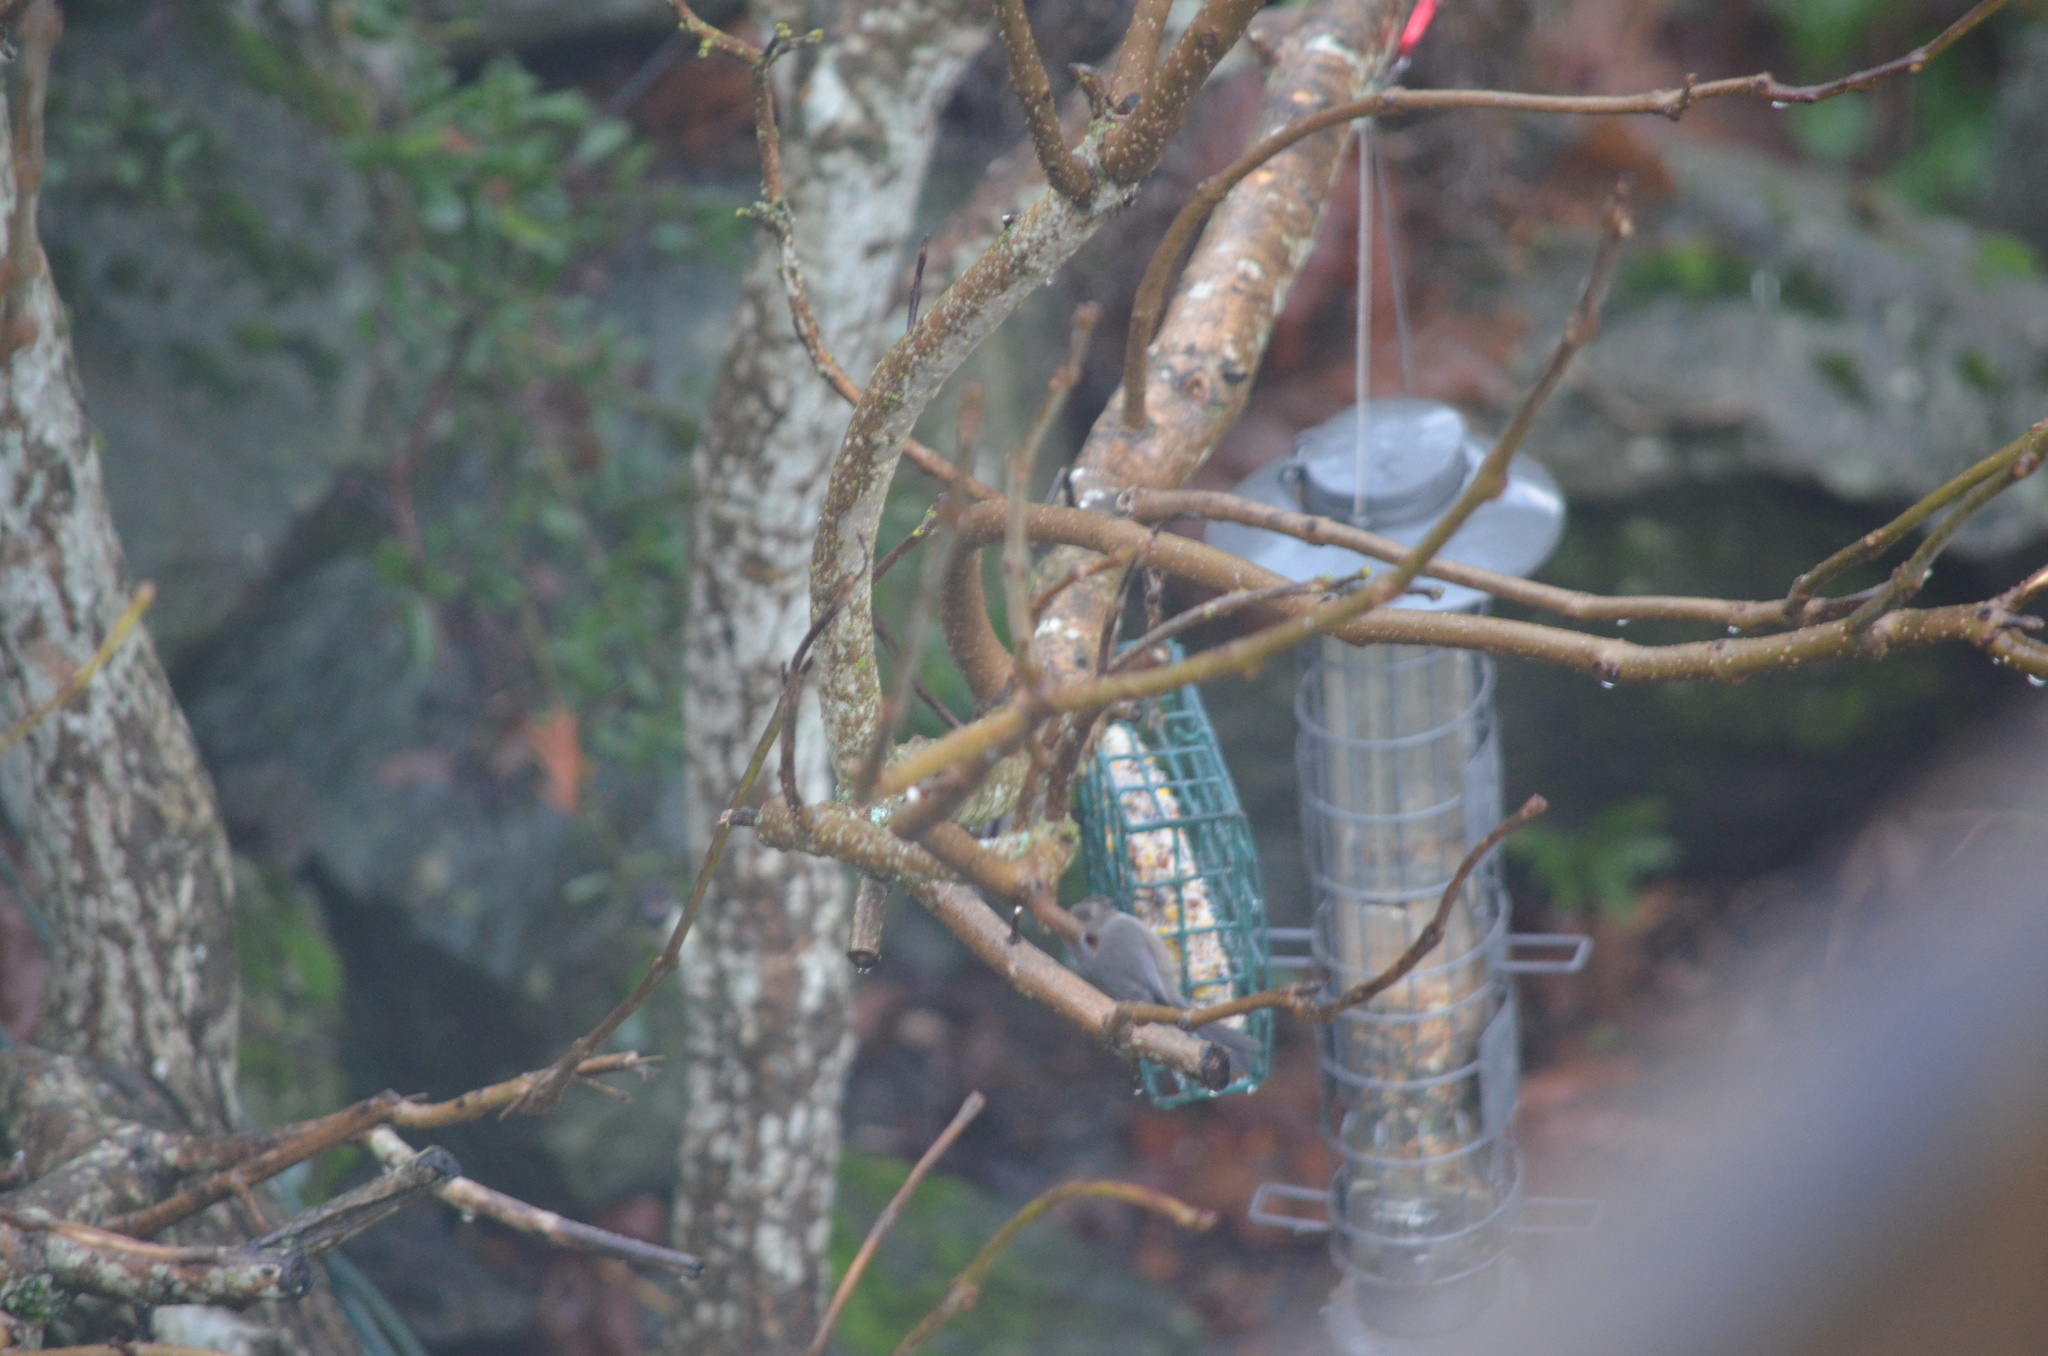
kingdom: Animalia
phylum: Chordata
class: Aves
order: Passeriformes
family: Aegithalidae
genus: Psaltriparus
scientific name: Psaltriparus minimus
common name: American bushtit
